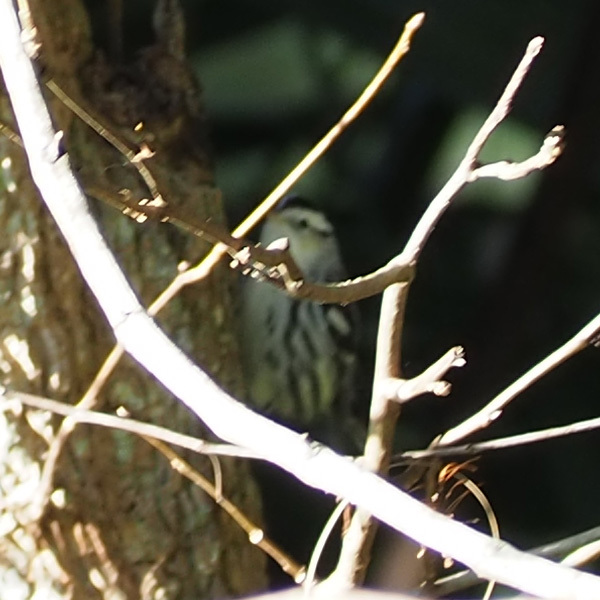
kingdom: Animalia
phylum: Chordata
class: Aves
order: Passeriformes
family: Parulidae
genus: Mniotilta
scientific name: Mniotilta varia
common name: Black-and-white warbler
